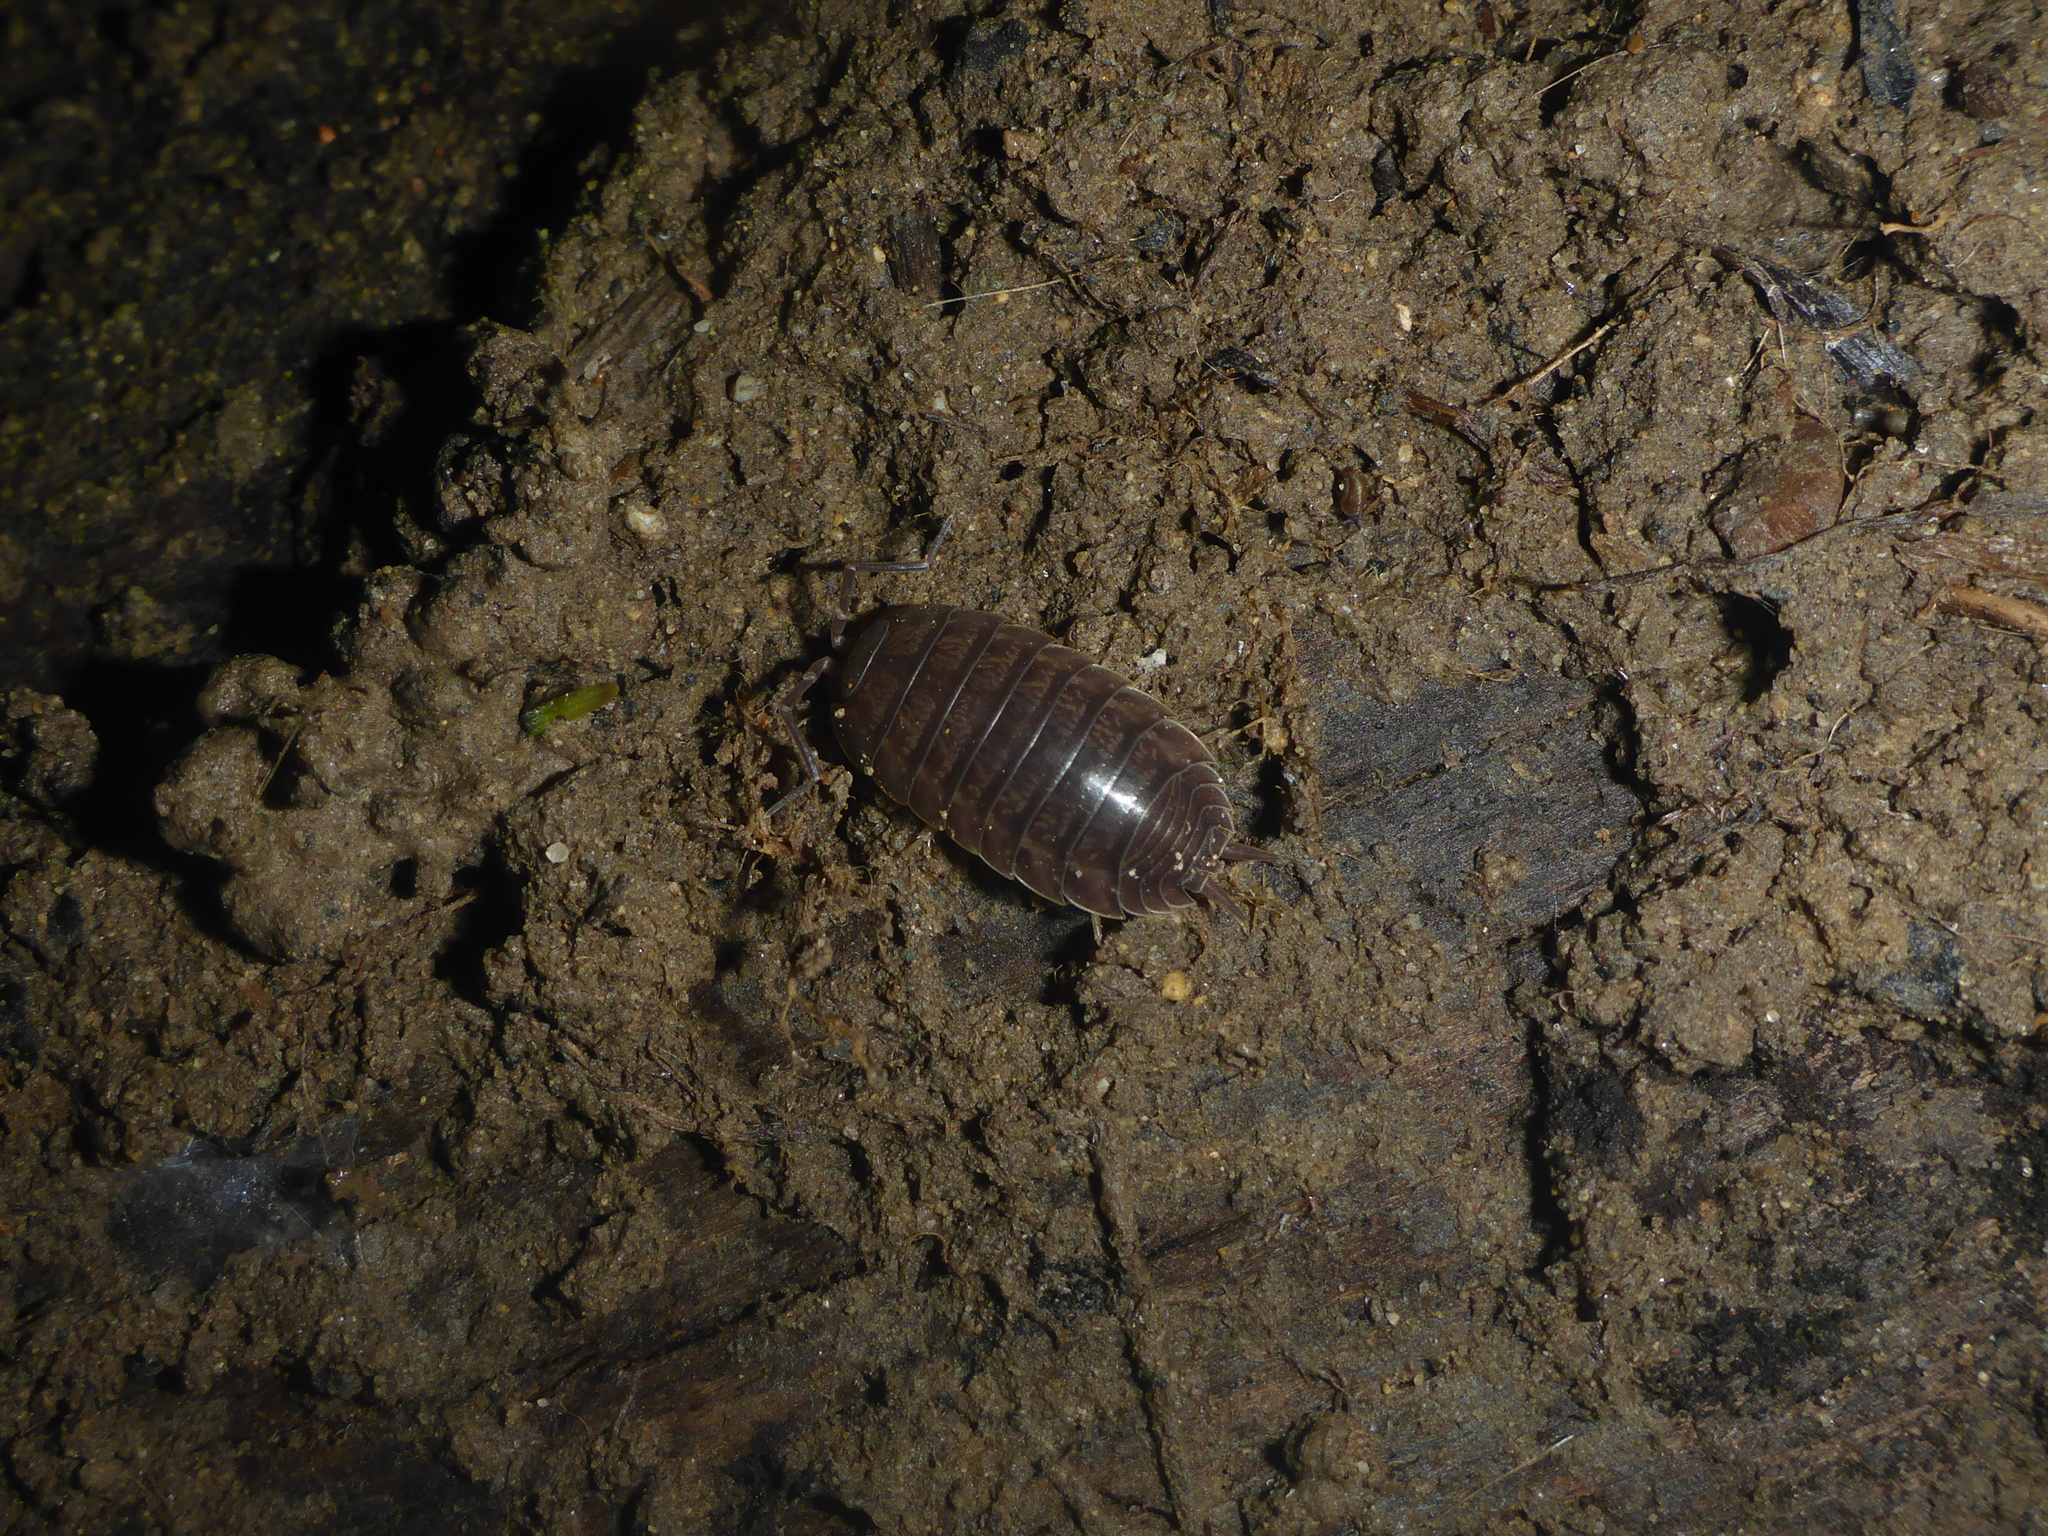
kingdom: Animalia
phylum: Arthropoda
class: Malacostraca
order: Isopoda
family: Porcellionidae
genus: Porcellio
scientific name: Porcellio laevis
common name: Swift woodlouse
